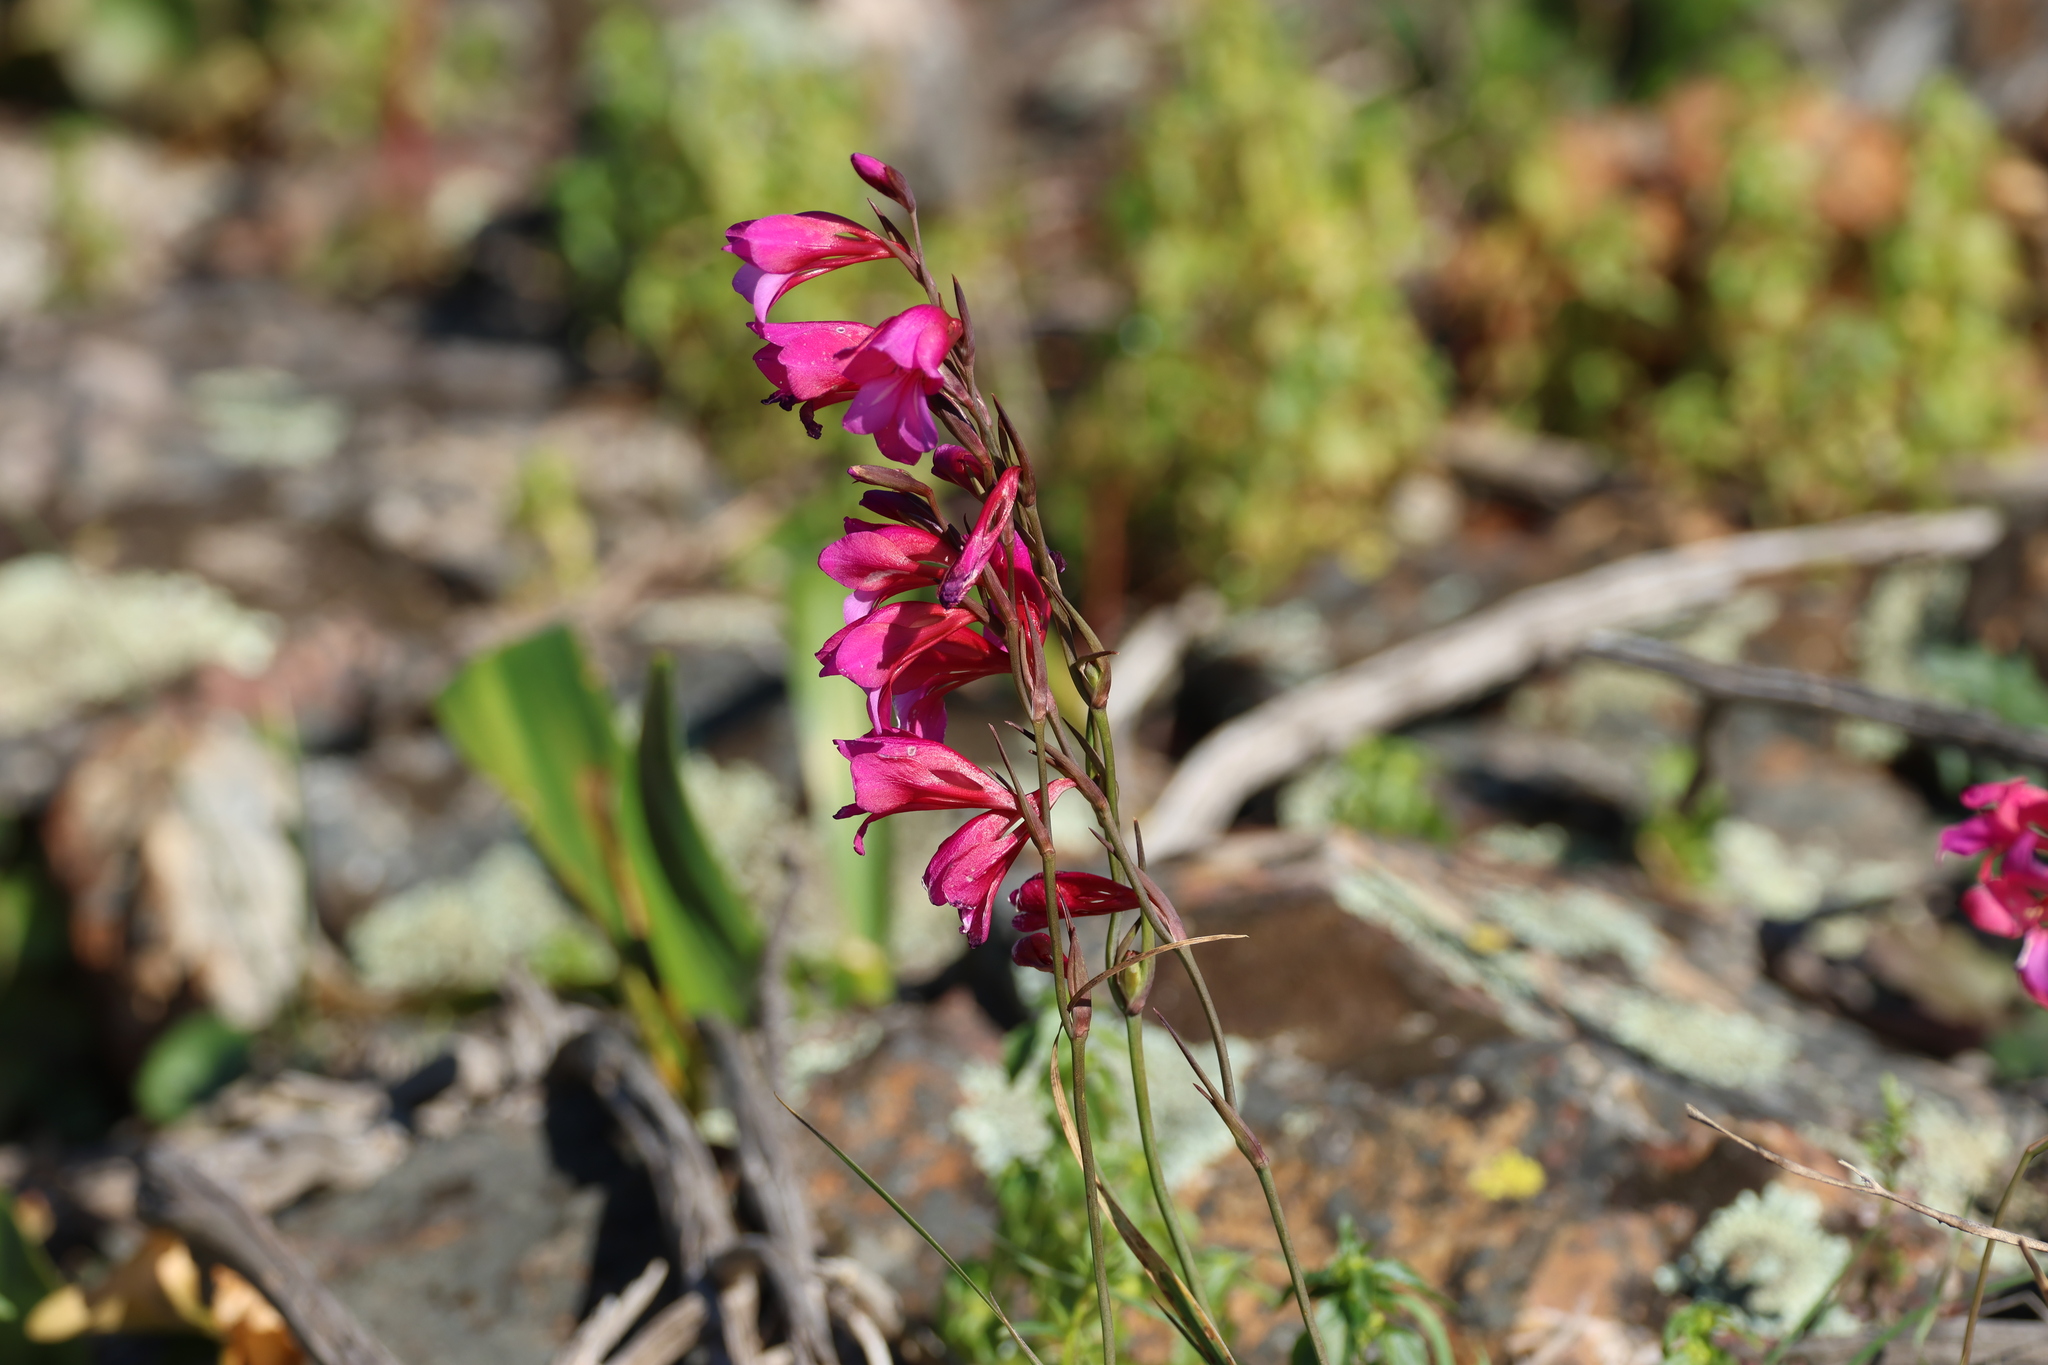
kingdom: Plantae
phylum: Tracheophyta
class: Liliopsida
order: Asparagales
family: Iridaceae
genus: Gladiolus
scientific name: Gladiolus illyricus
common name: Wild gladiolus
